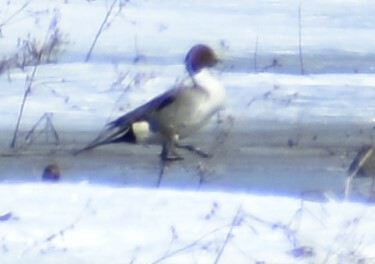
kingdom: Animalia
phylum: Chordata
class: Aves
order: Anseriformes
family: Anatidae
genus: Anas
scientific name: Anas acuta
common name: Northern pintail
